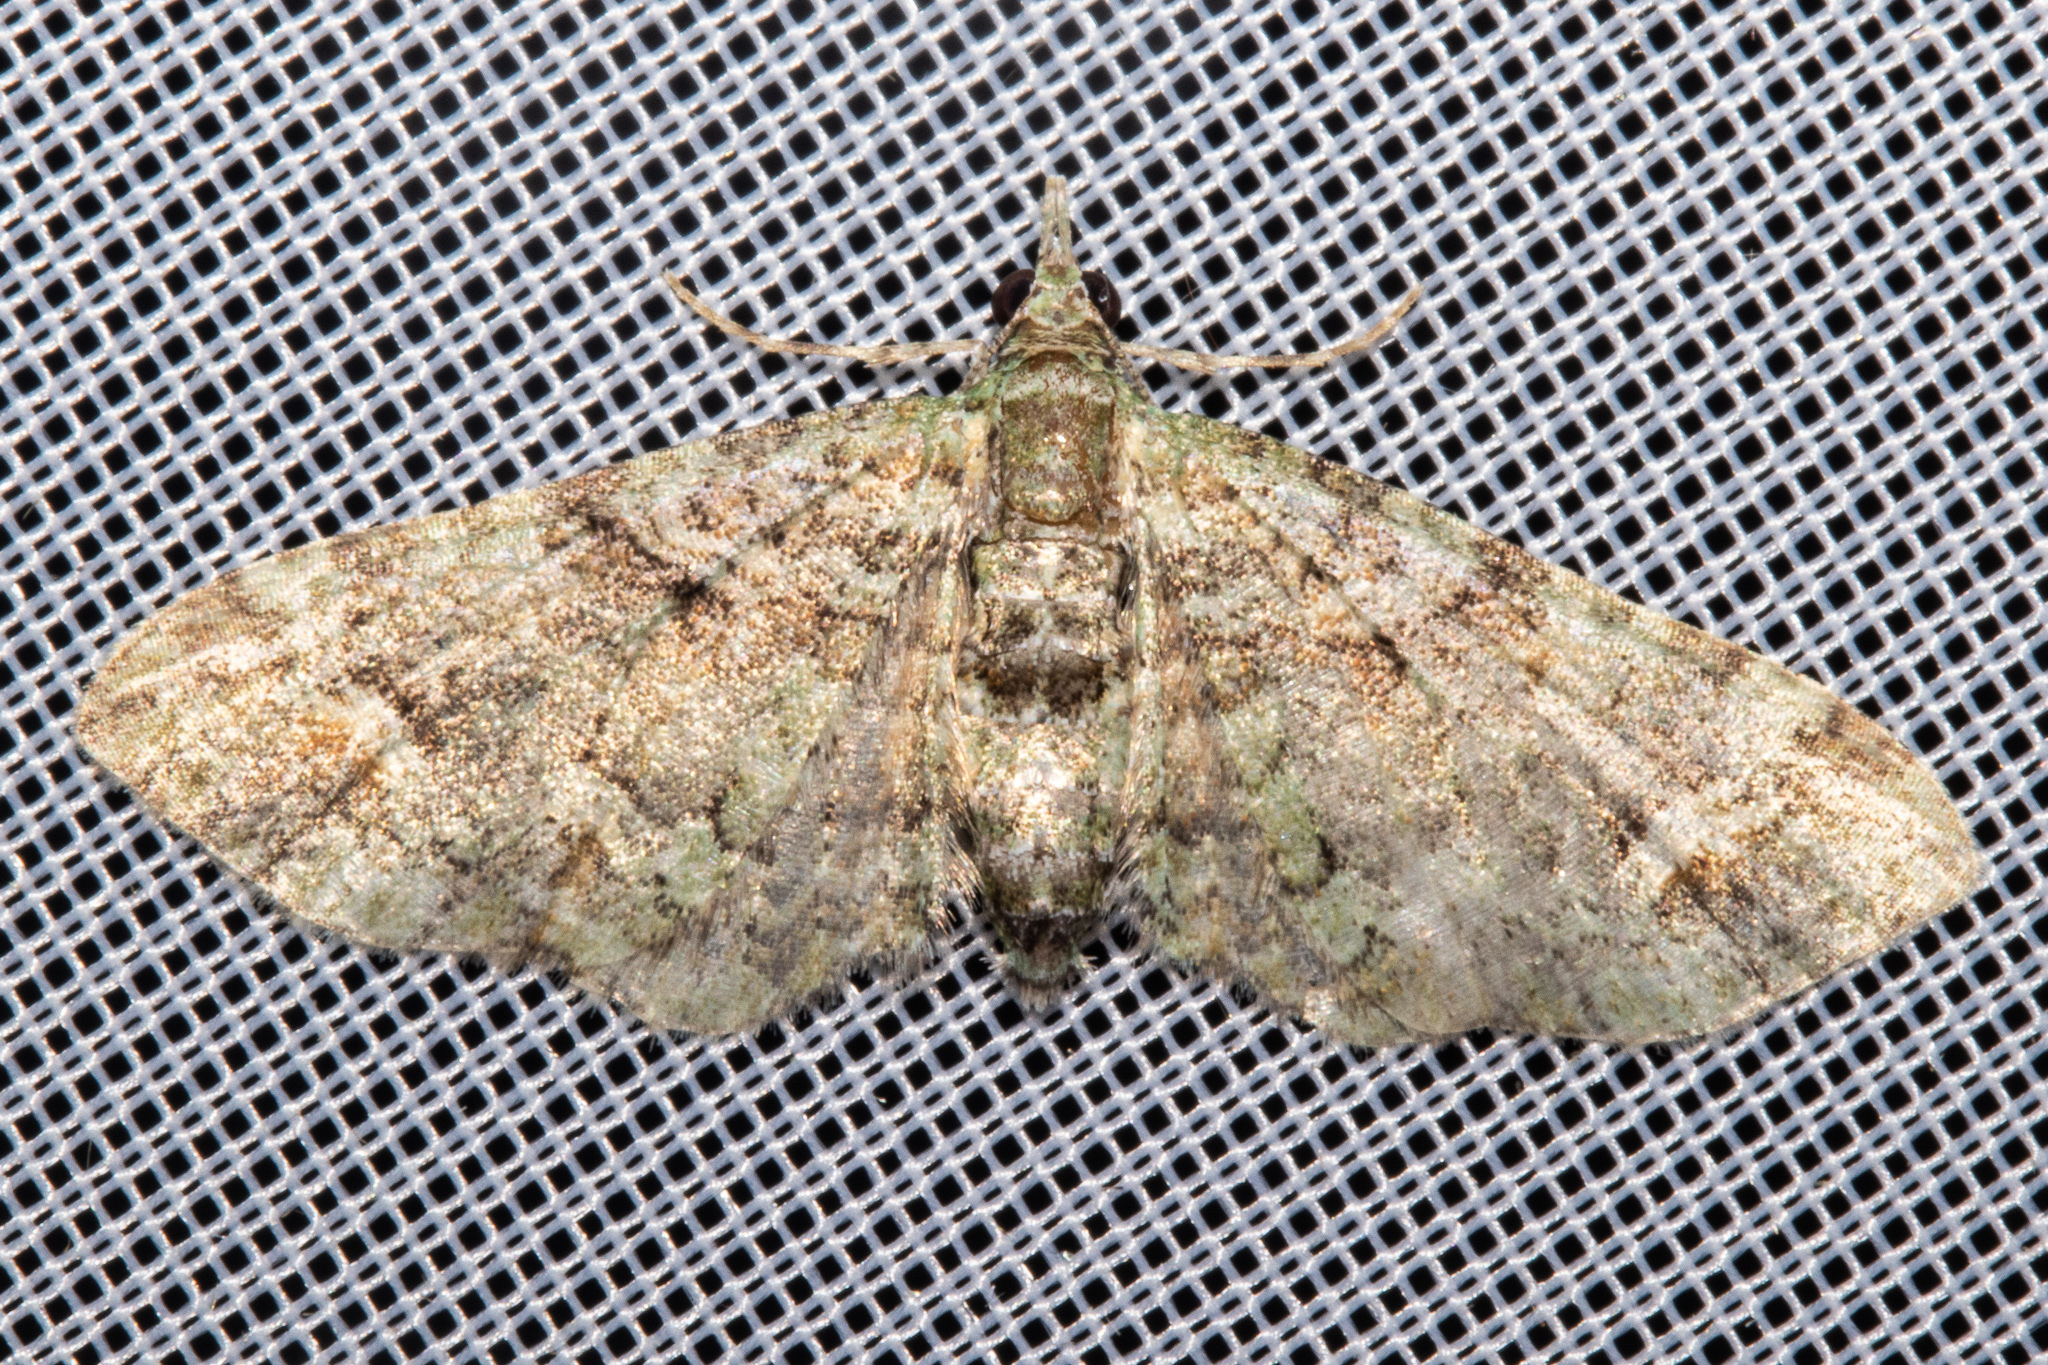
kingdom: Animalia
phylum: Arthropoda
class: Insecta
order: Lepidoptera
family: Geometridae
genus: Idaea
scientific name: Idaea mutanda
